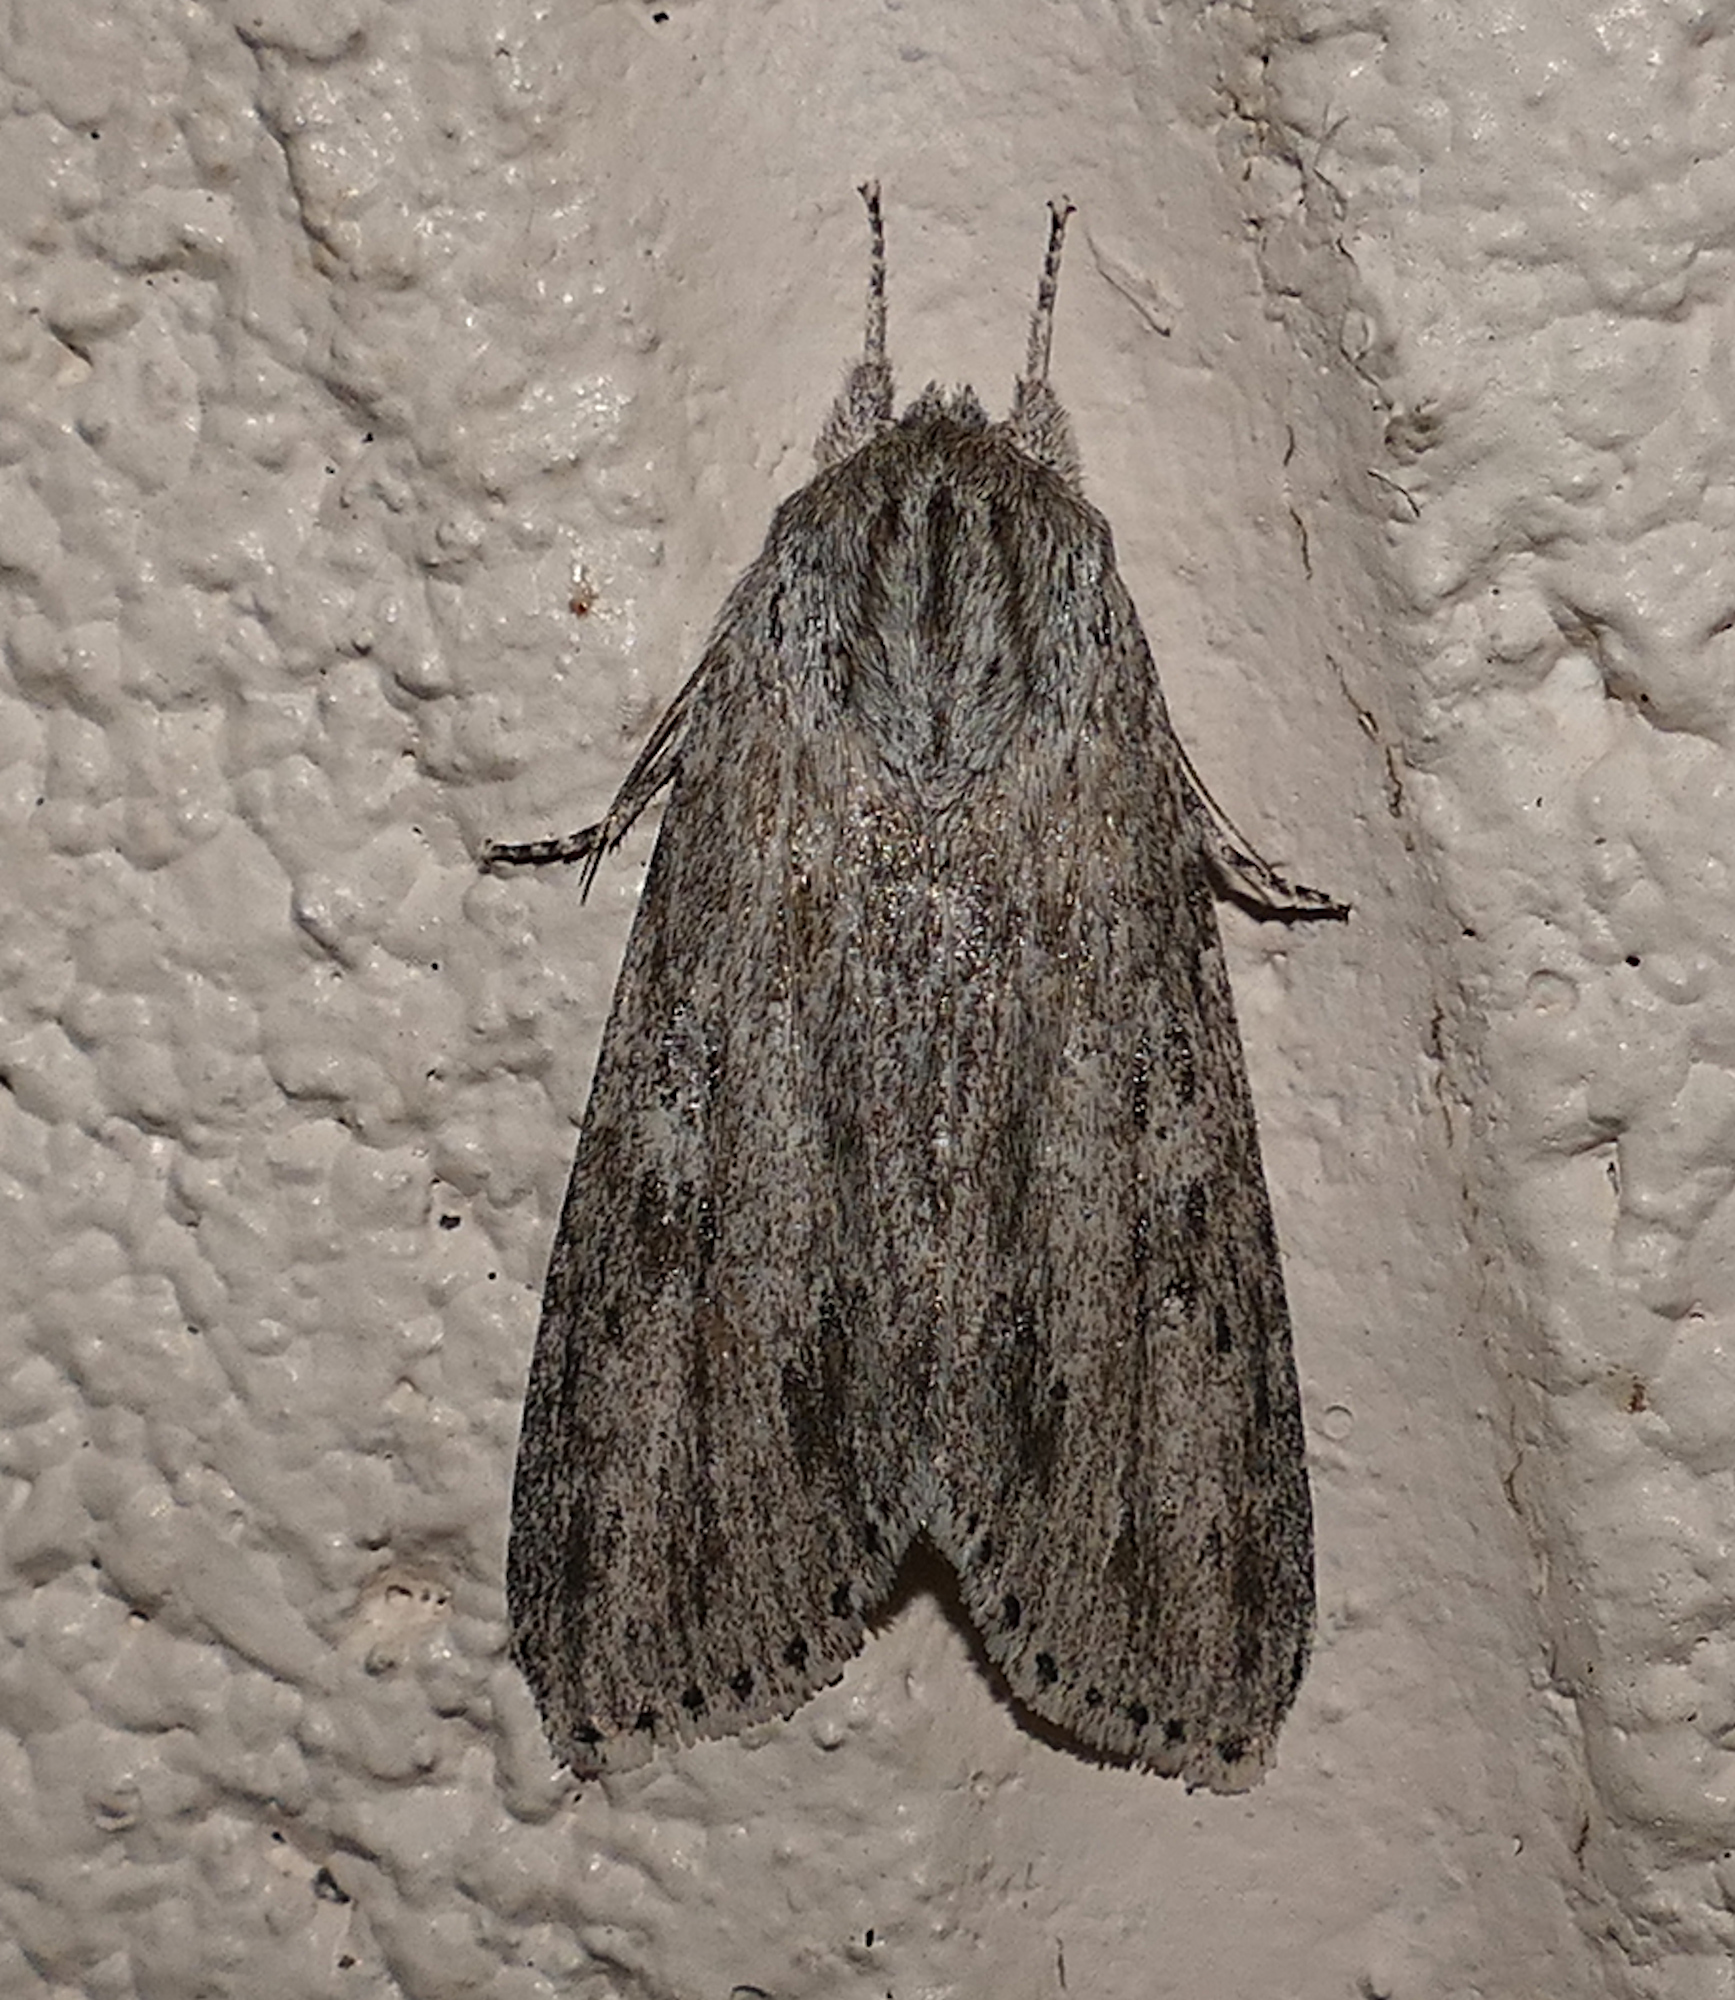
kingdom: Animalia
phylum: Arthropoda
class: Insecta
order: Lepidoptera
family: Noctuidae
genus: Acronicta
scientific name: Acronicta oblinita
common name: Smeared dagger
